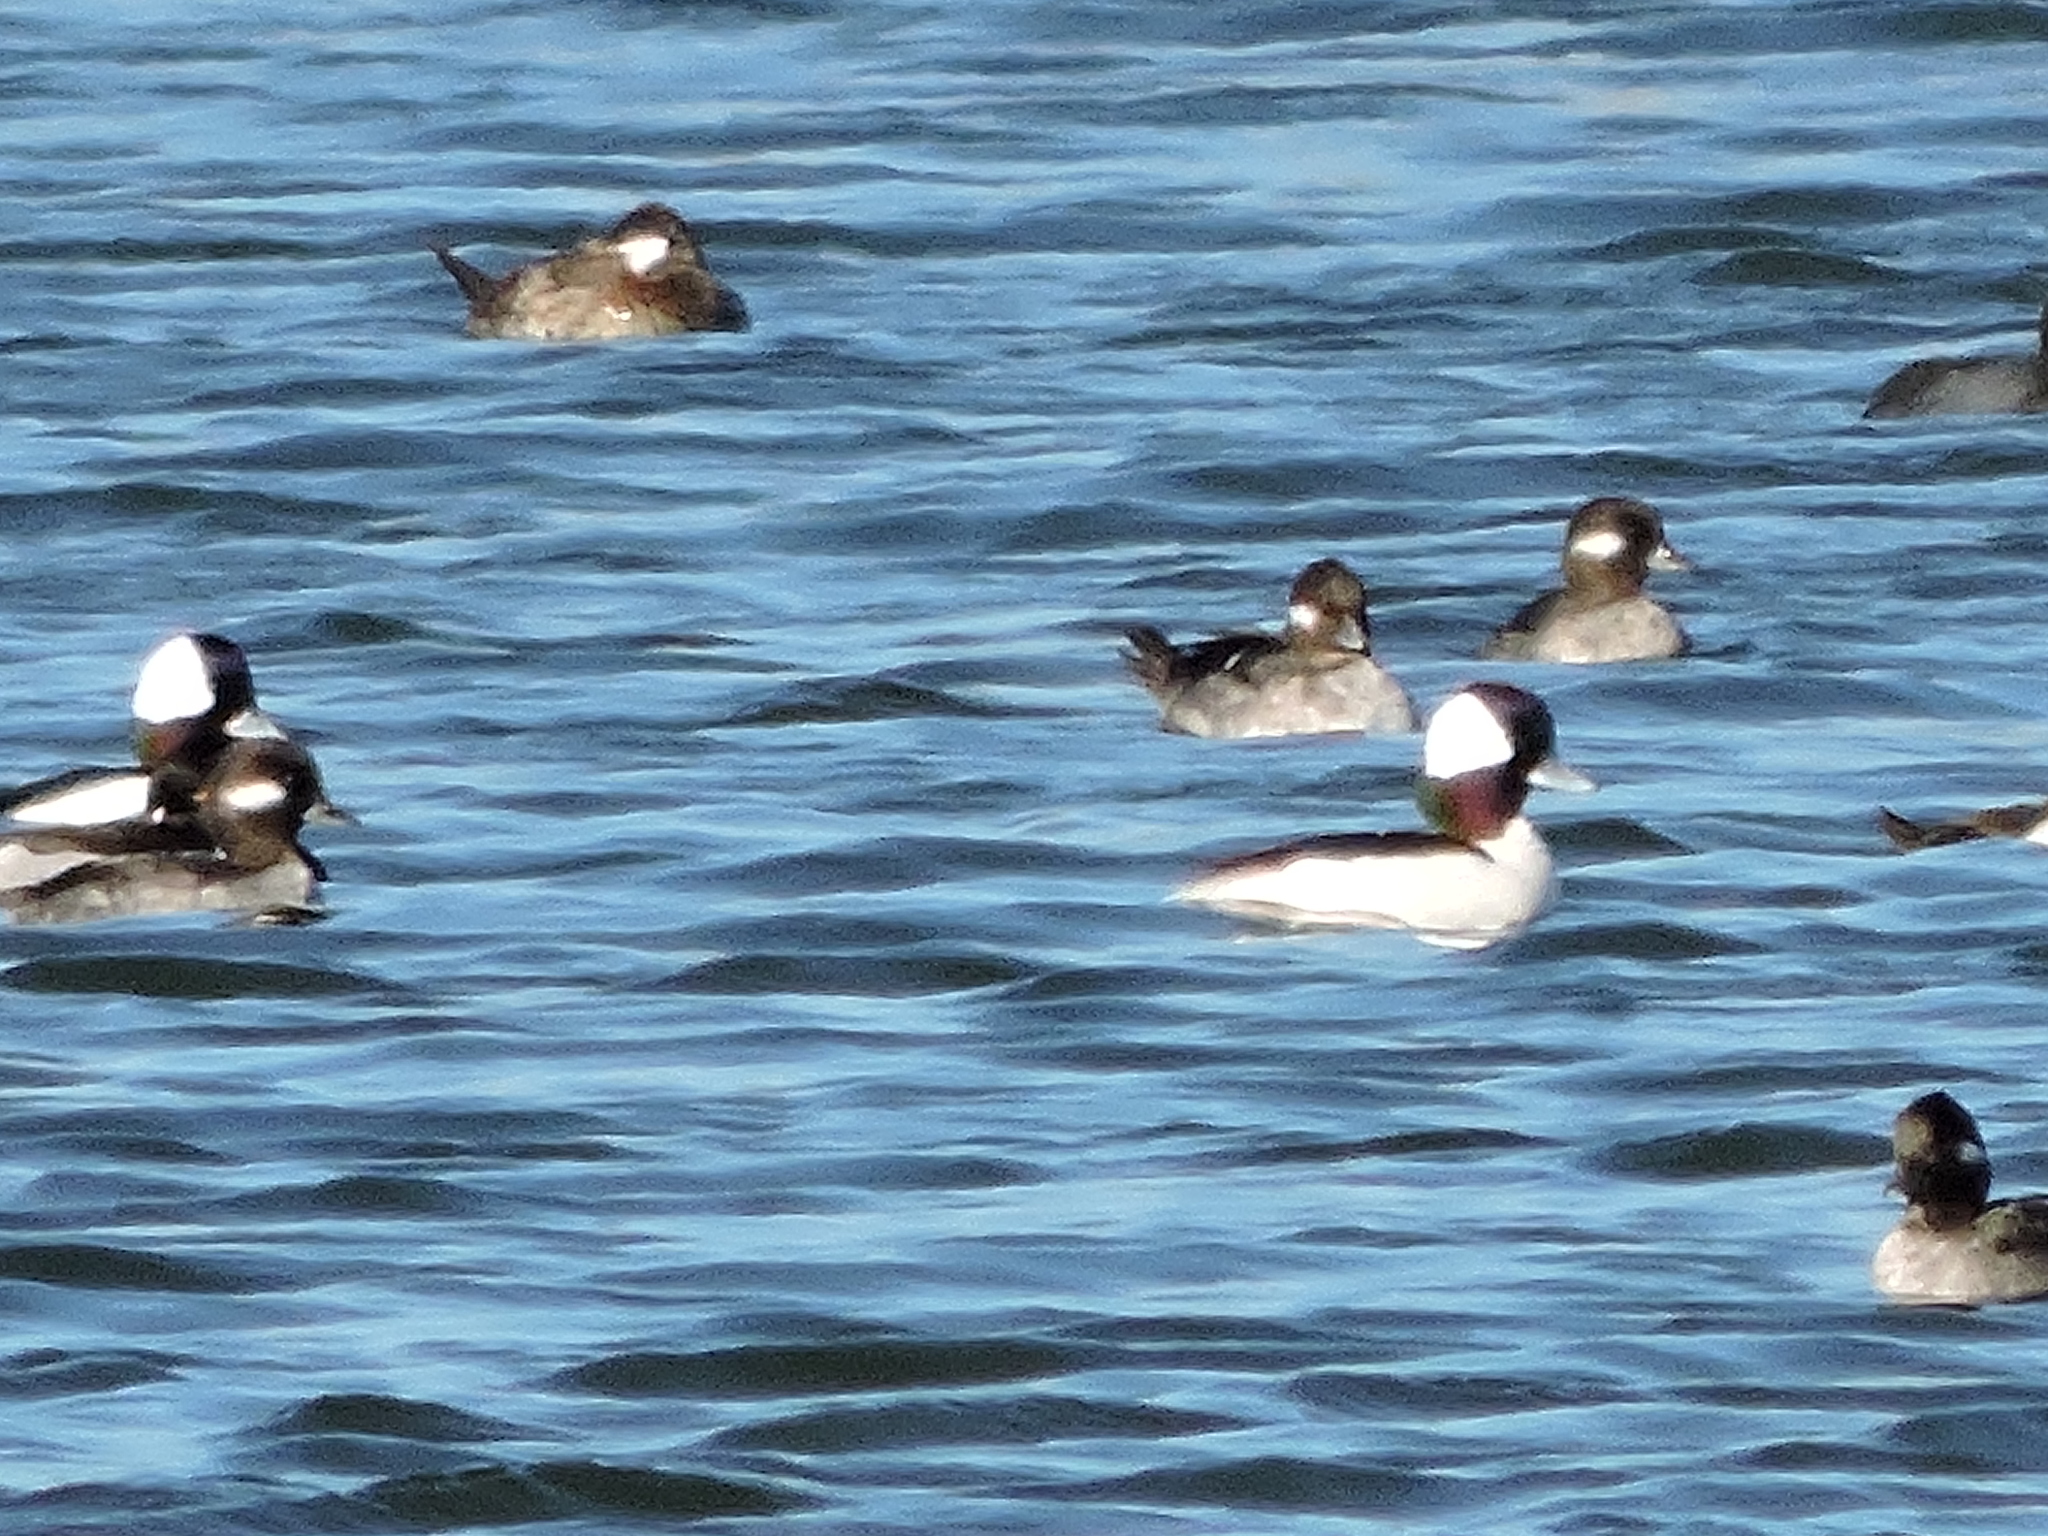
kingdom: Animalia
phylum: Chordata
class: Aves
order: Anseriformes
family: Anatidae
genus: Bucephala
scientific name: Bucephala albeola
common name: Bufflehead
